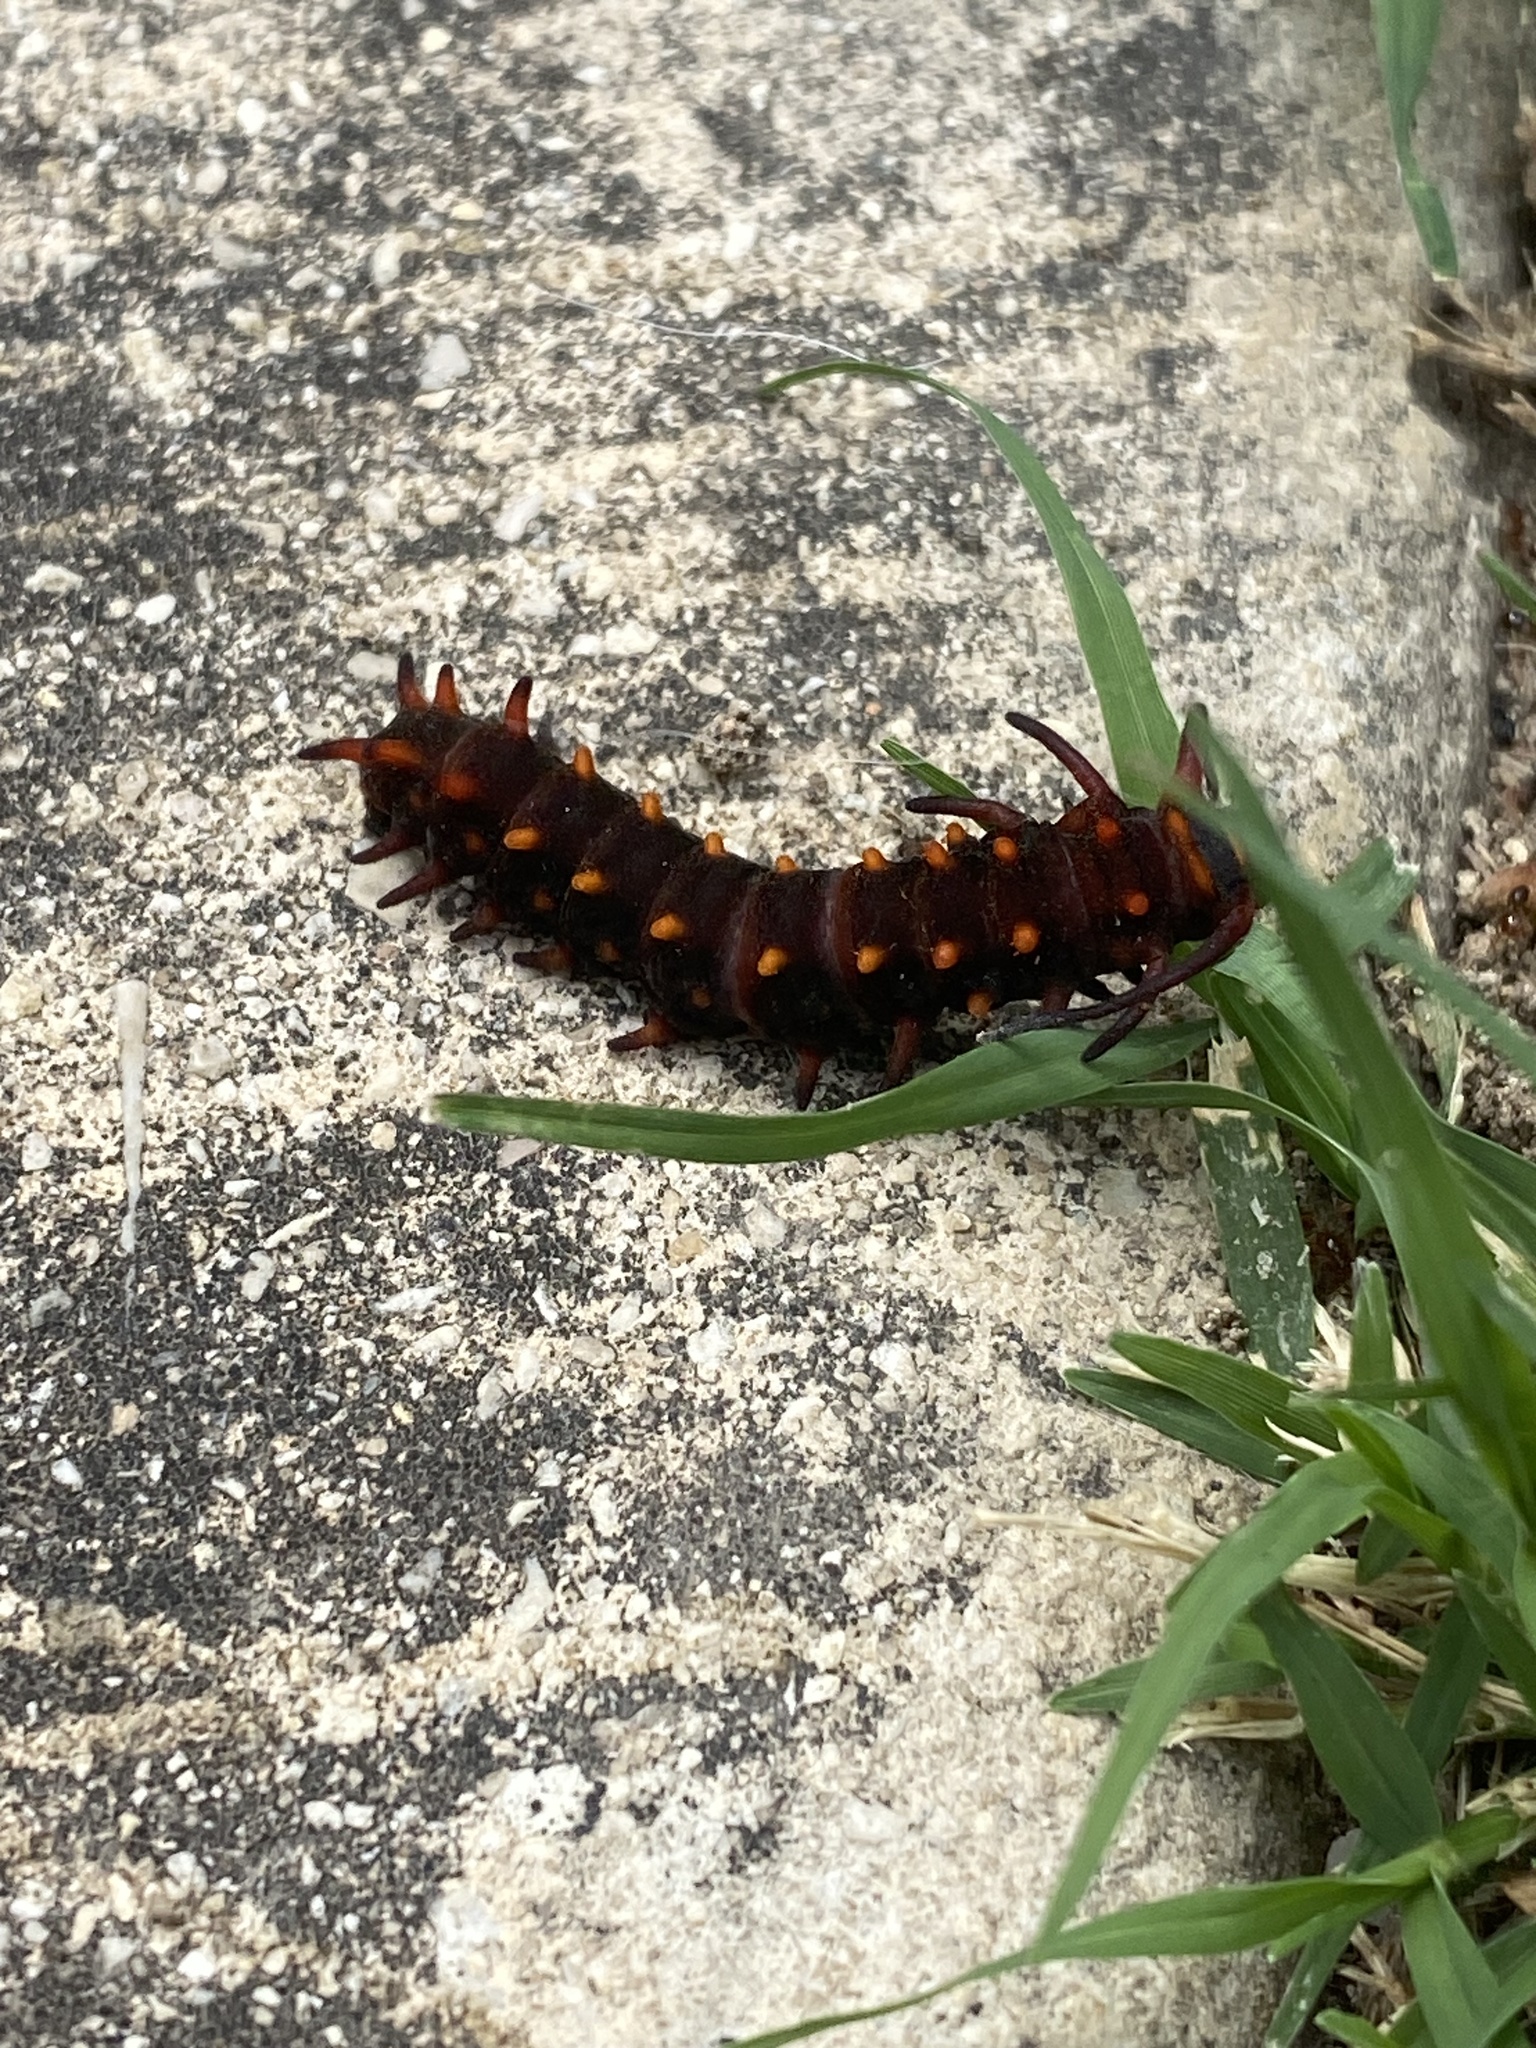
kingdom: Animalia
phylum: Arthropoda
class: Insecta
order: Lepidoptera
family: Papilionidae
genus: Battus
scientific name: Battus philenor
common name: Pipevine swallowtail
